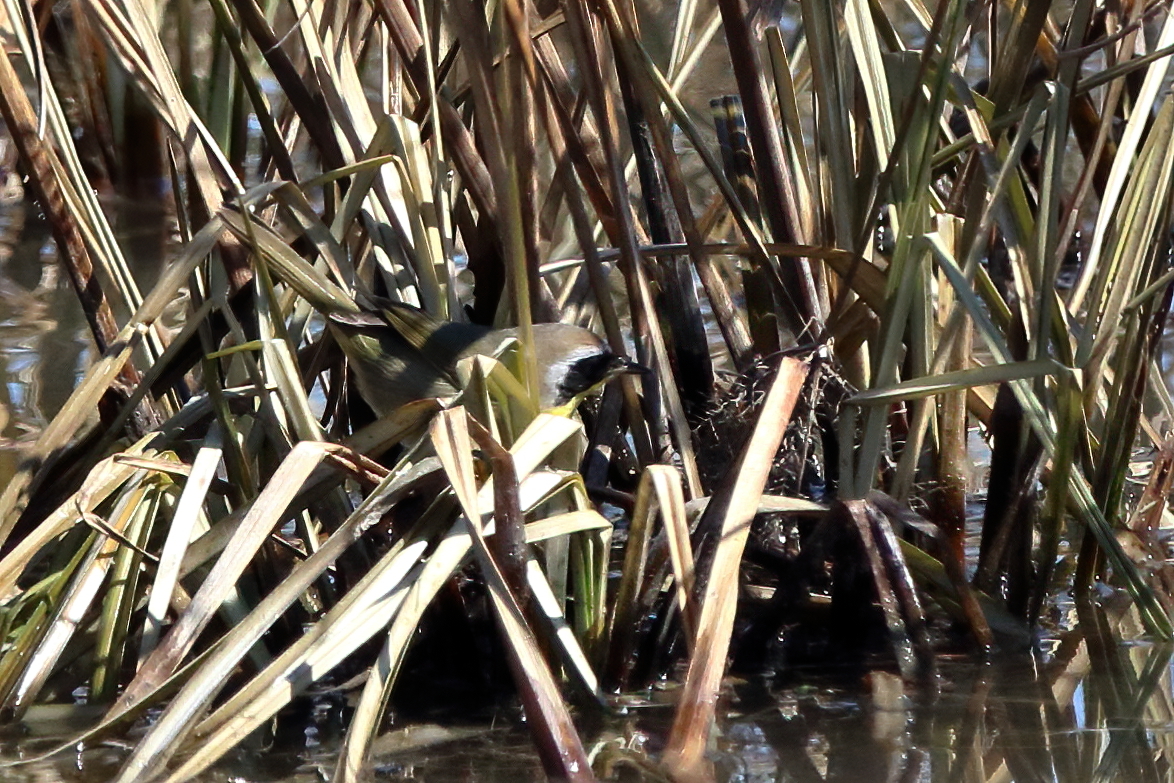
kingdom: Animalia
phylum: Chordata
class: Aves
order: Passeriformes
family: Parulidae
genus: Geothlypis
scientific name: Geothlypis trichas
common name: Common yellowthroat
